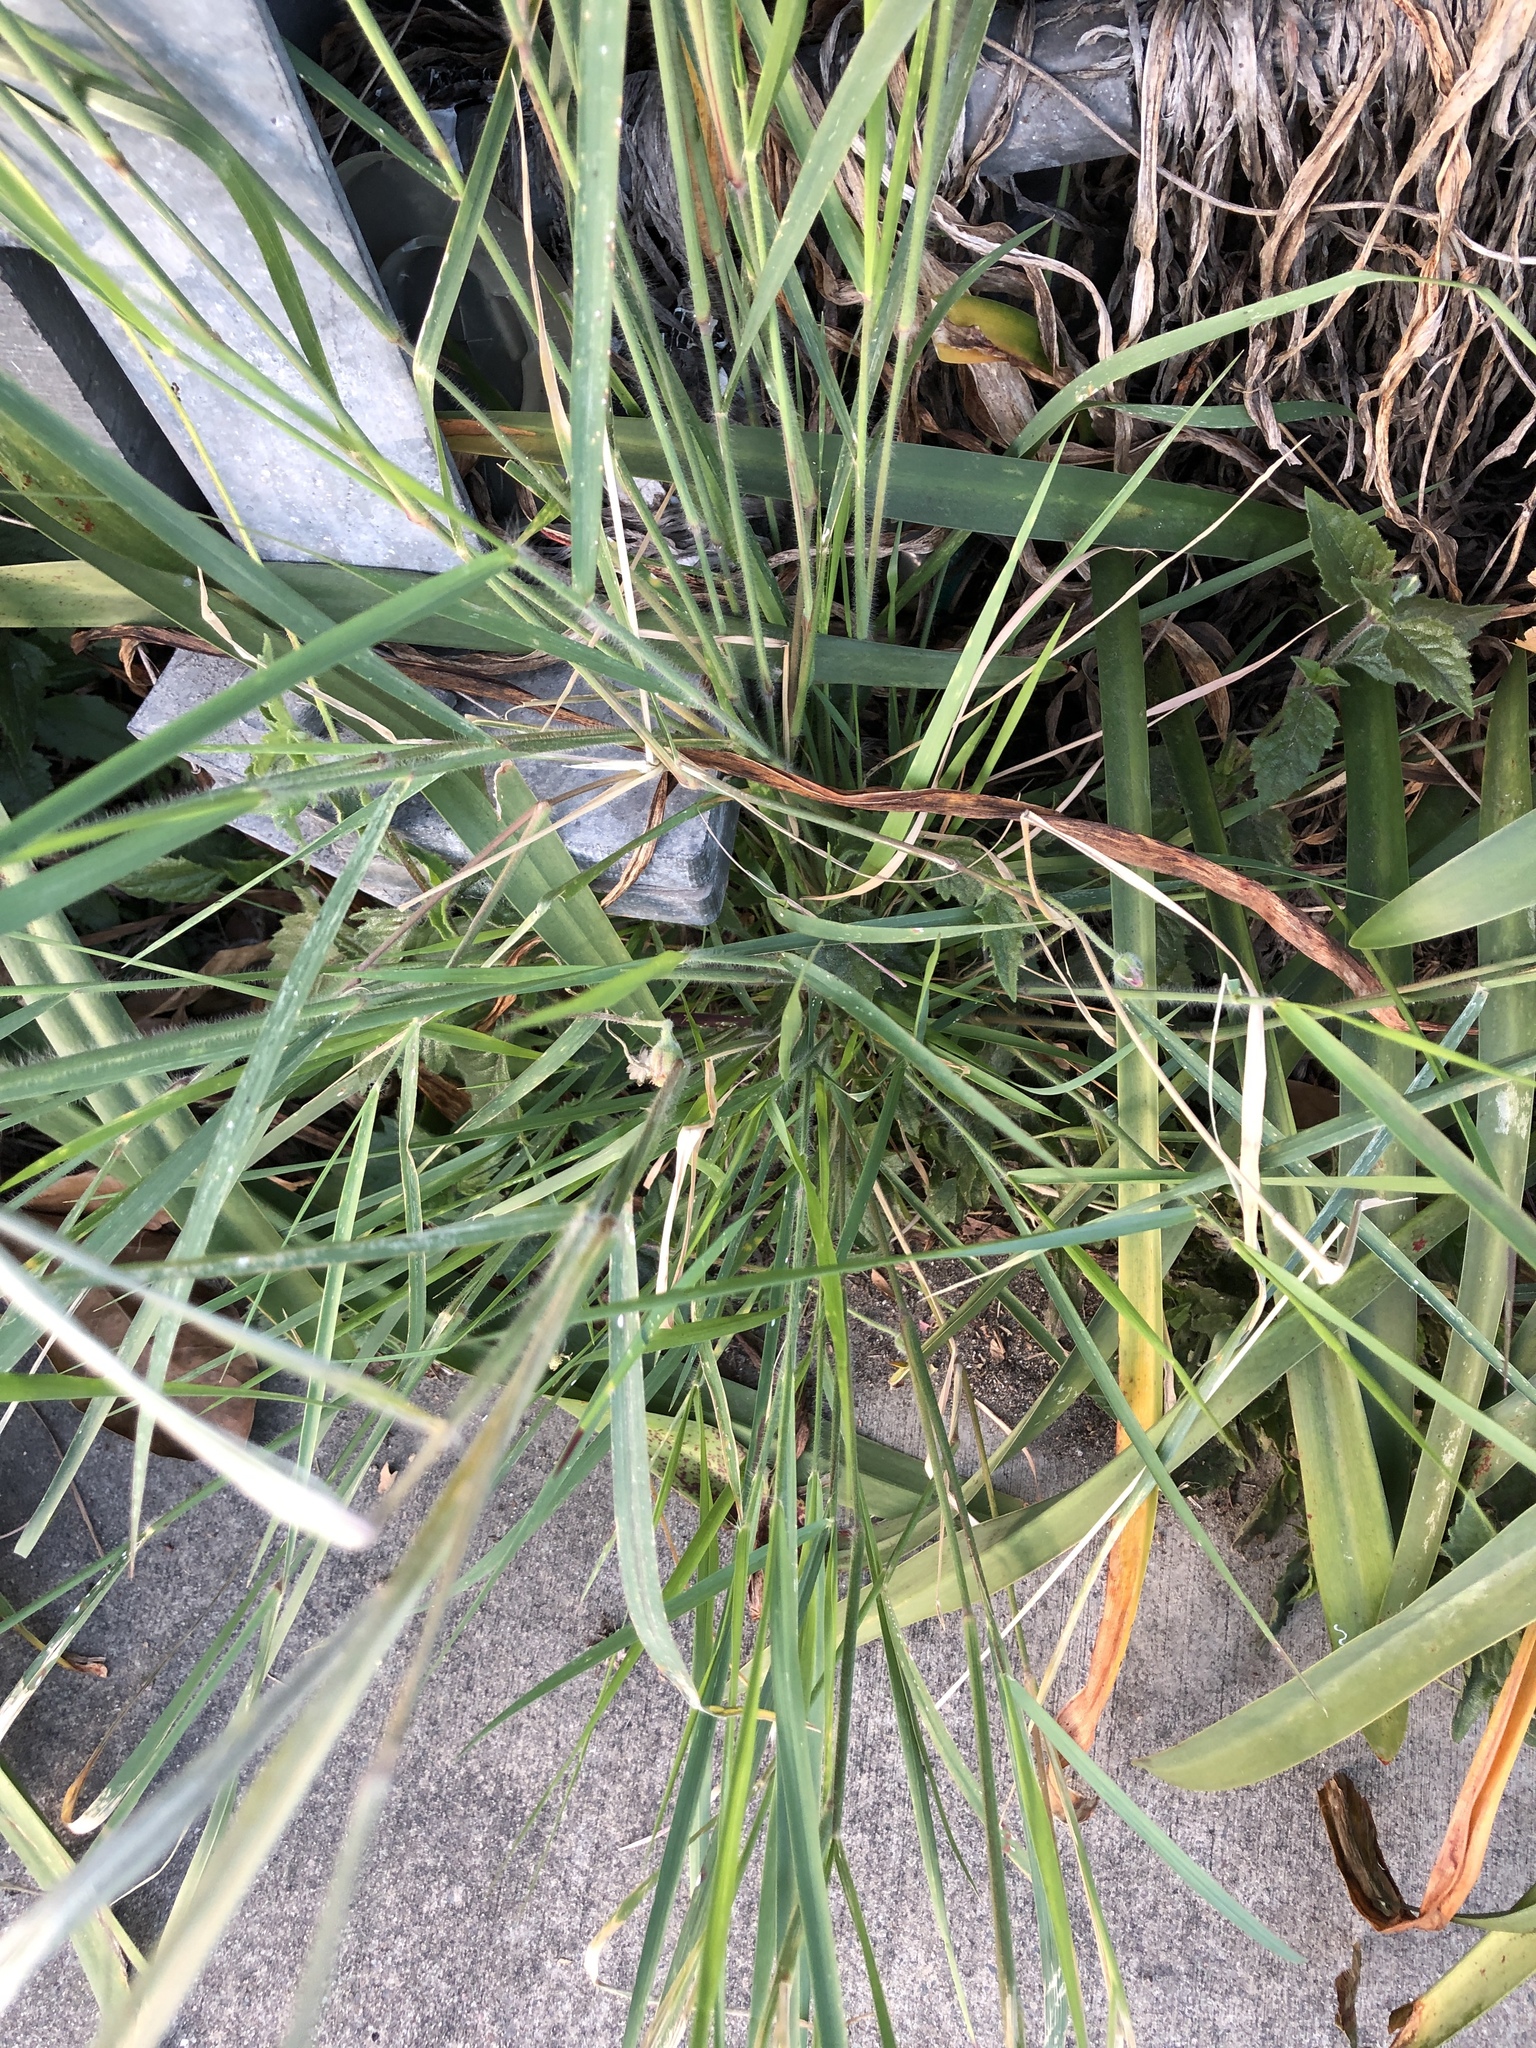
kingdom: Plantae
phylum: Tracheophyta
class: Liliopsida
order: Poales
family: Poaceae
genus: Melinis
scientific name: Melinis repens
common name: Rose natal grass
